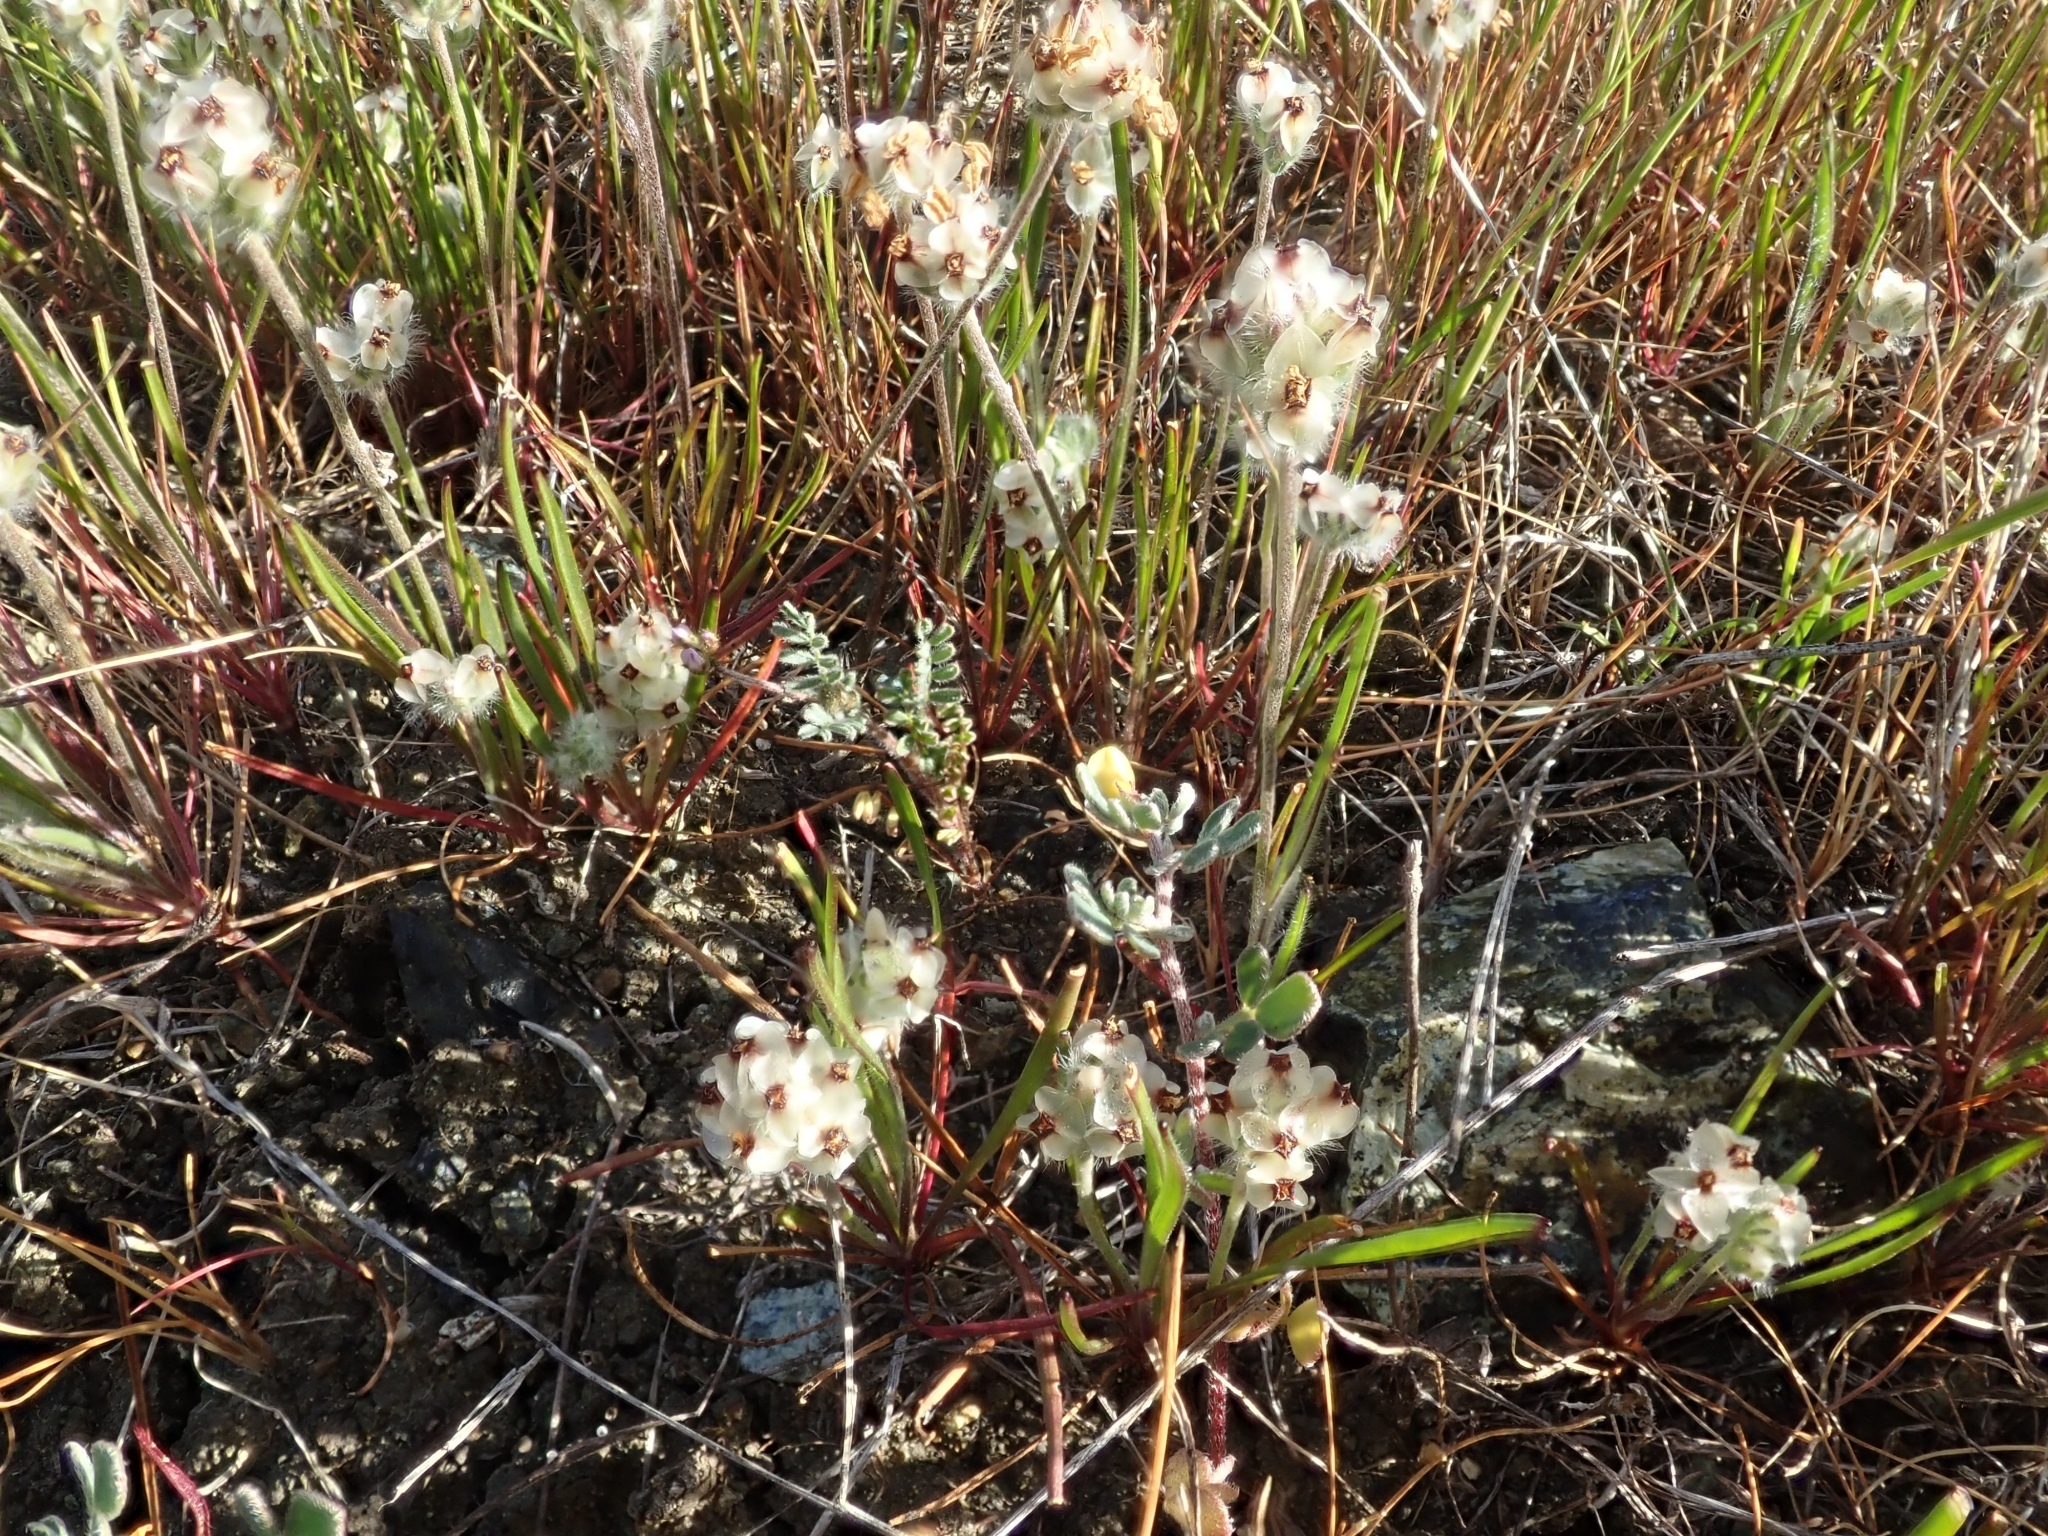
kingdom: Plantae
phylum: Tracheophyta
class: Magnoliopsida
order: Lamiales
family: Plantaginaceae
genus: Plantago
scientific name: Plantago erecta
